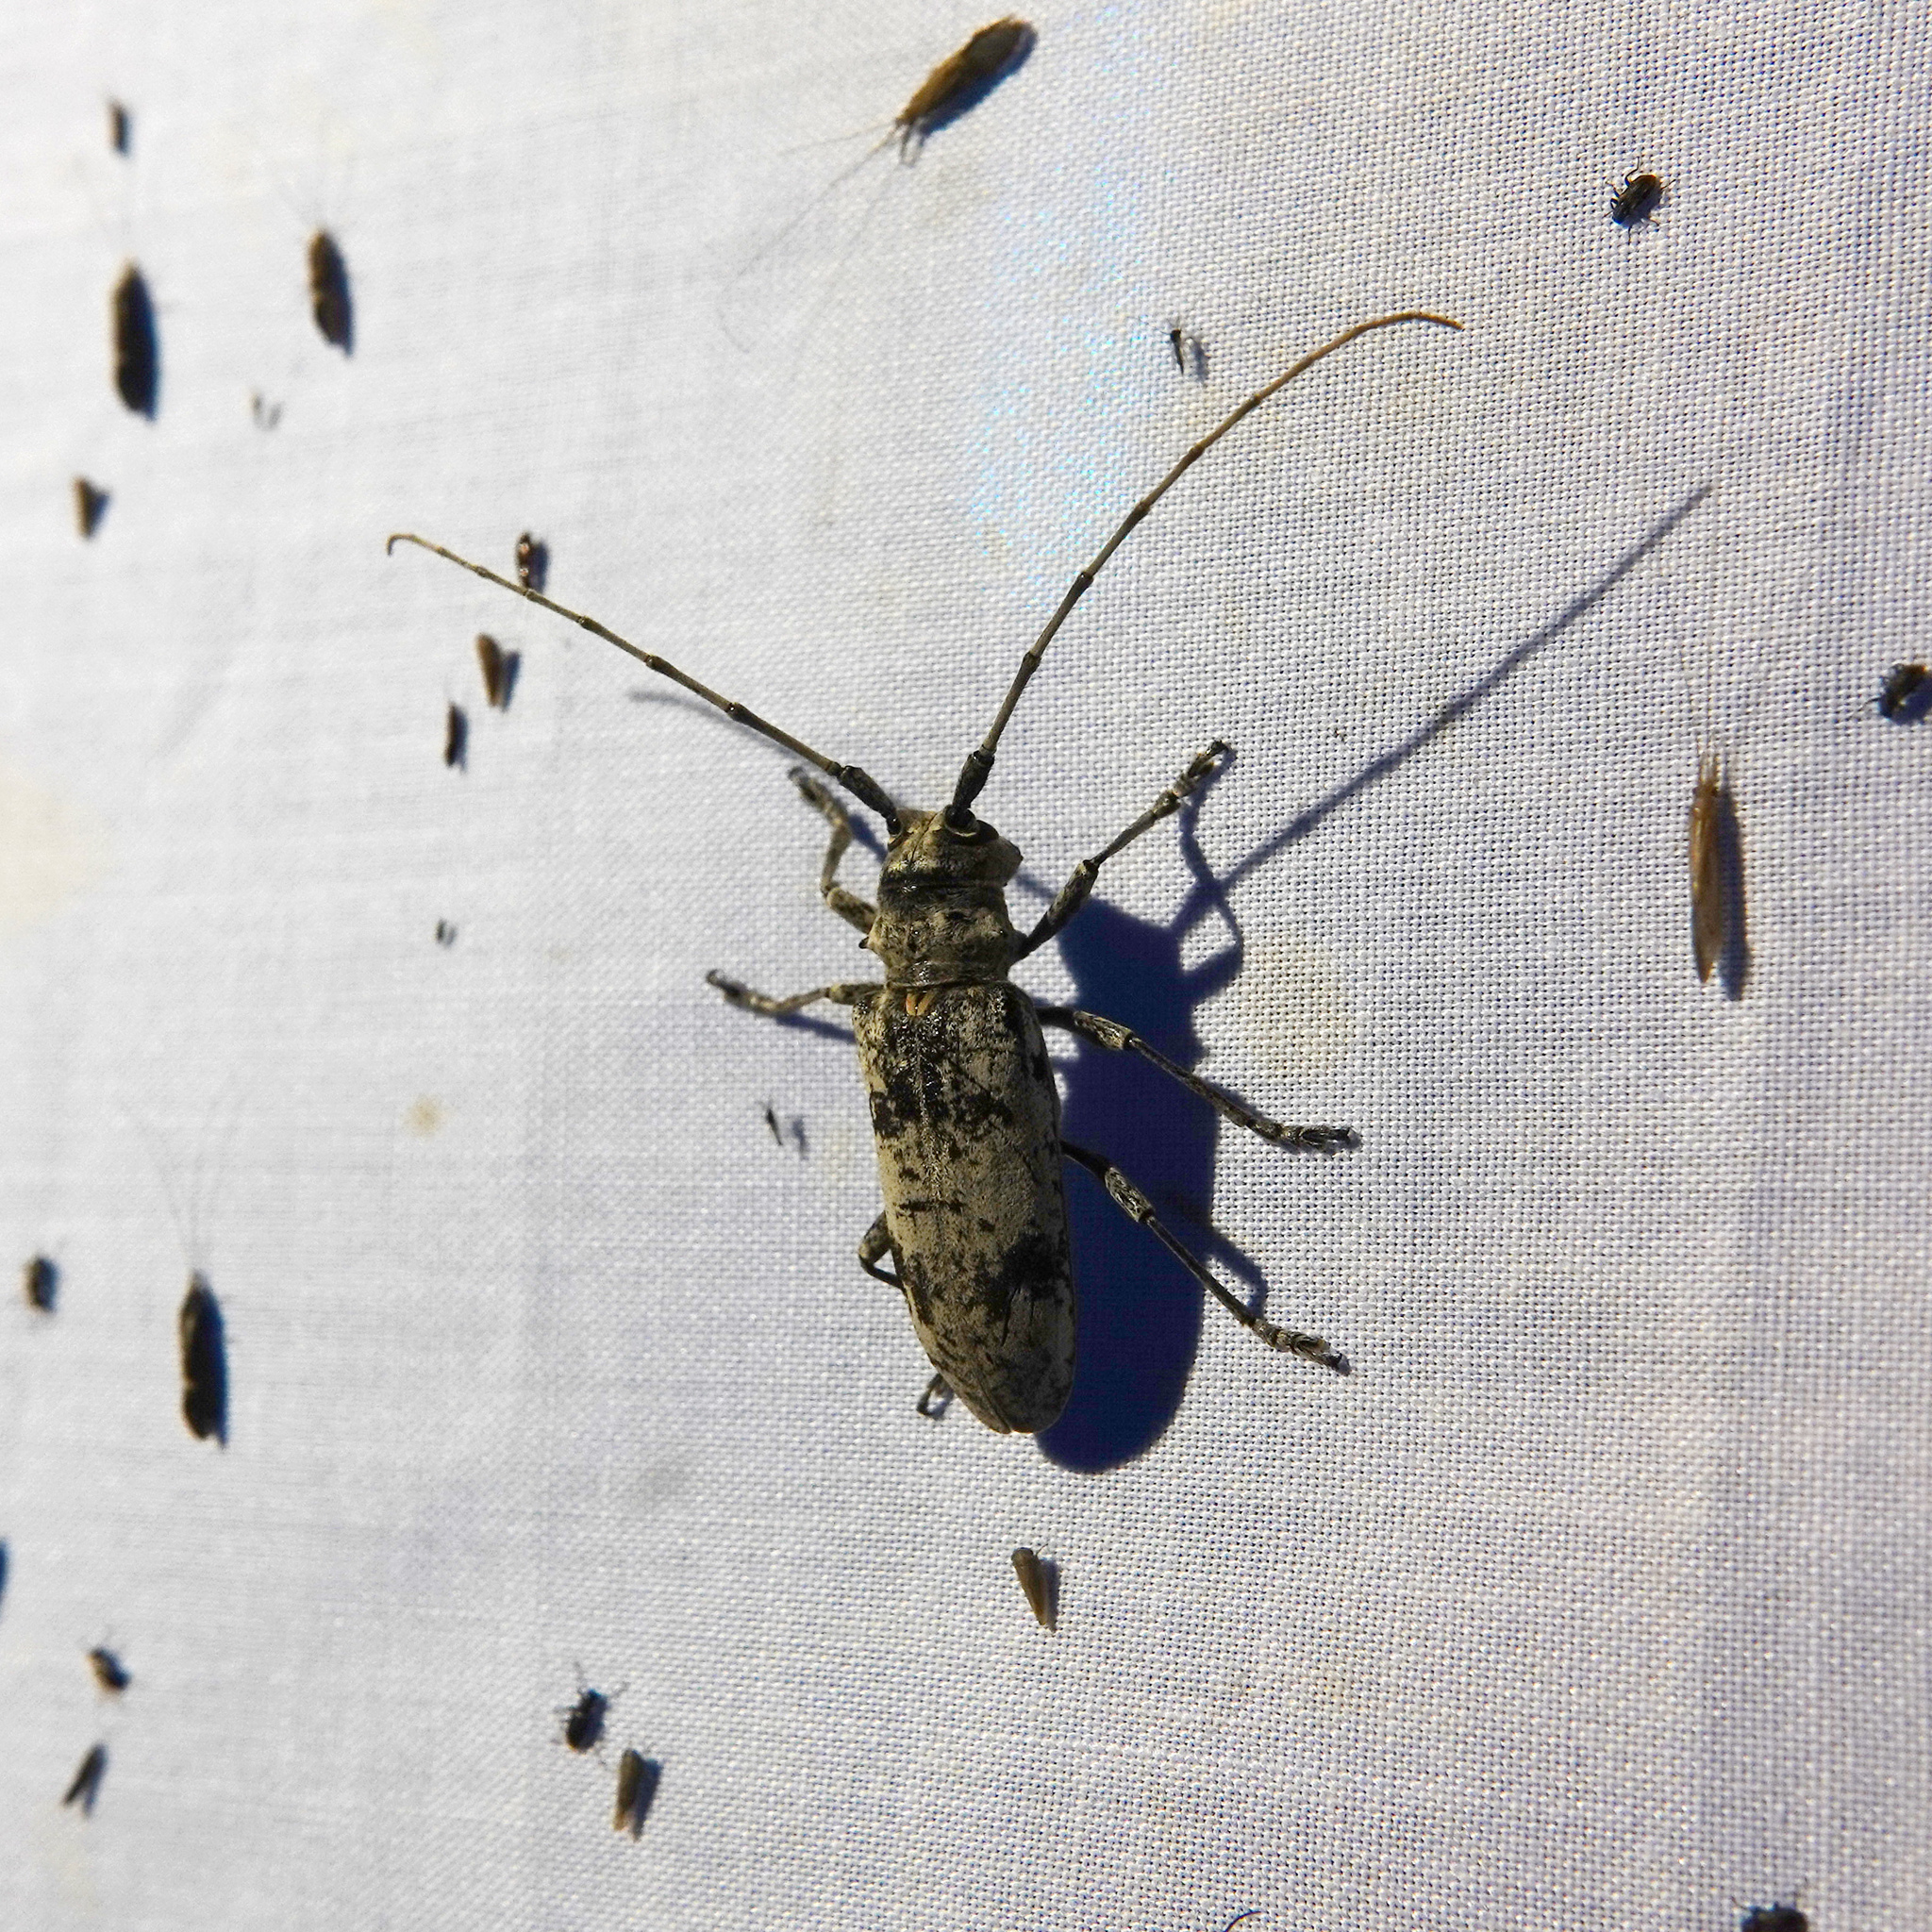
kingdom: Animalia
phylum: Arthropoda
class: Insecta
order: Coleoptera
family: Cerambycidae
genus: Goes
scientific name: Goes tigrinus
